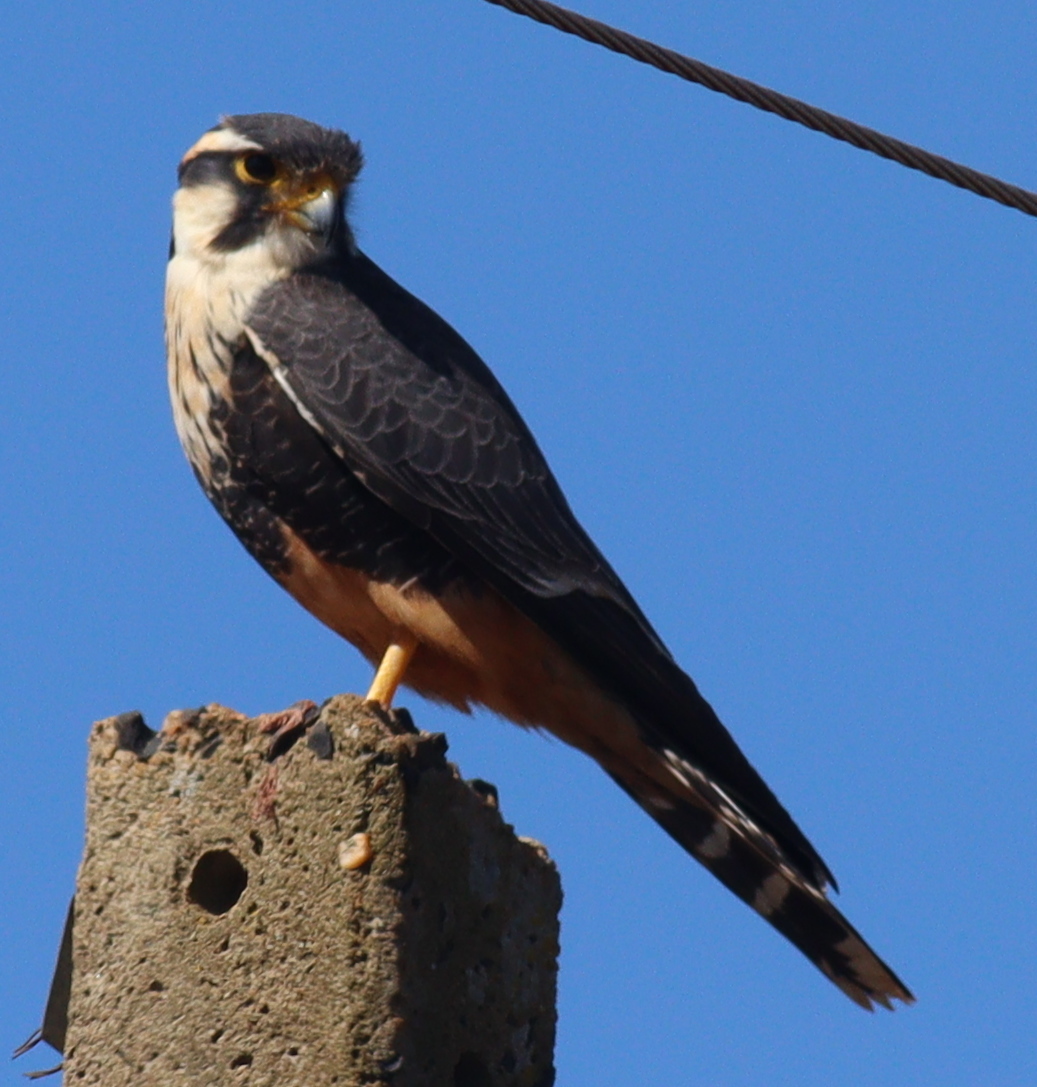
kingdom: Animalia
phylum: Chordata
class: Aves
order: Falconiformes
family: Falconidae
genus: Falco
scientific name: Falco femoralis
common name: Aplomado falcon
